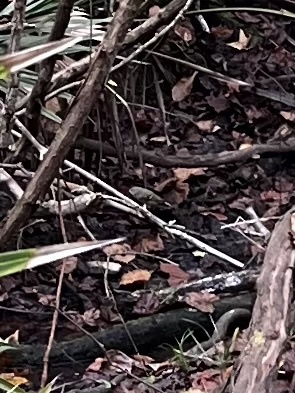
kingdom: Animalia
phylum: Chordata
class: Aves
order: Passeriformes
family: Tyrannidae
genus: Sayornis
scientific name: Sayornis phoebe
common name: Eastern phoebe
